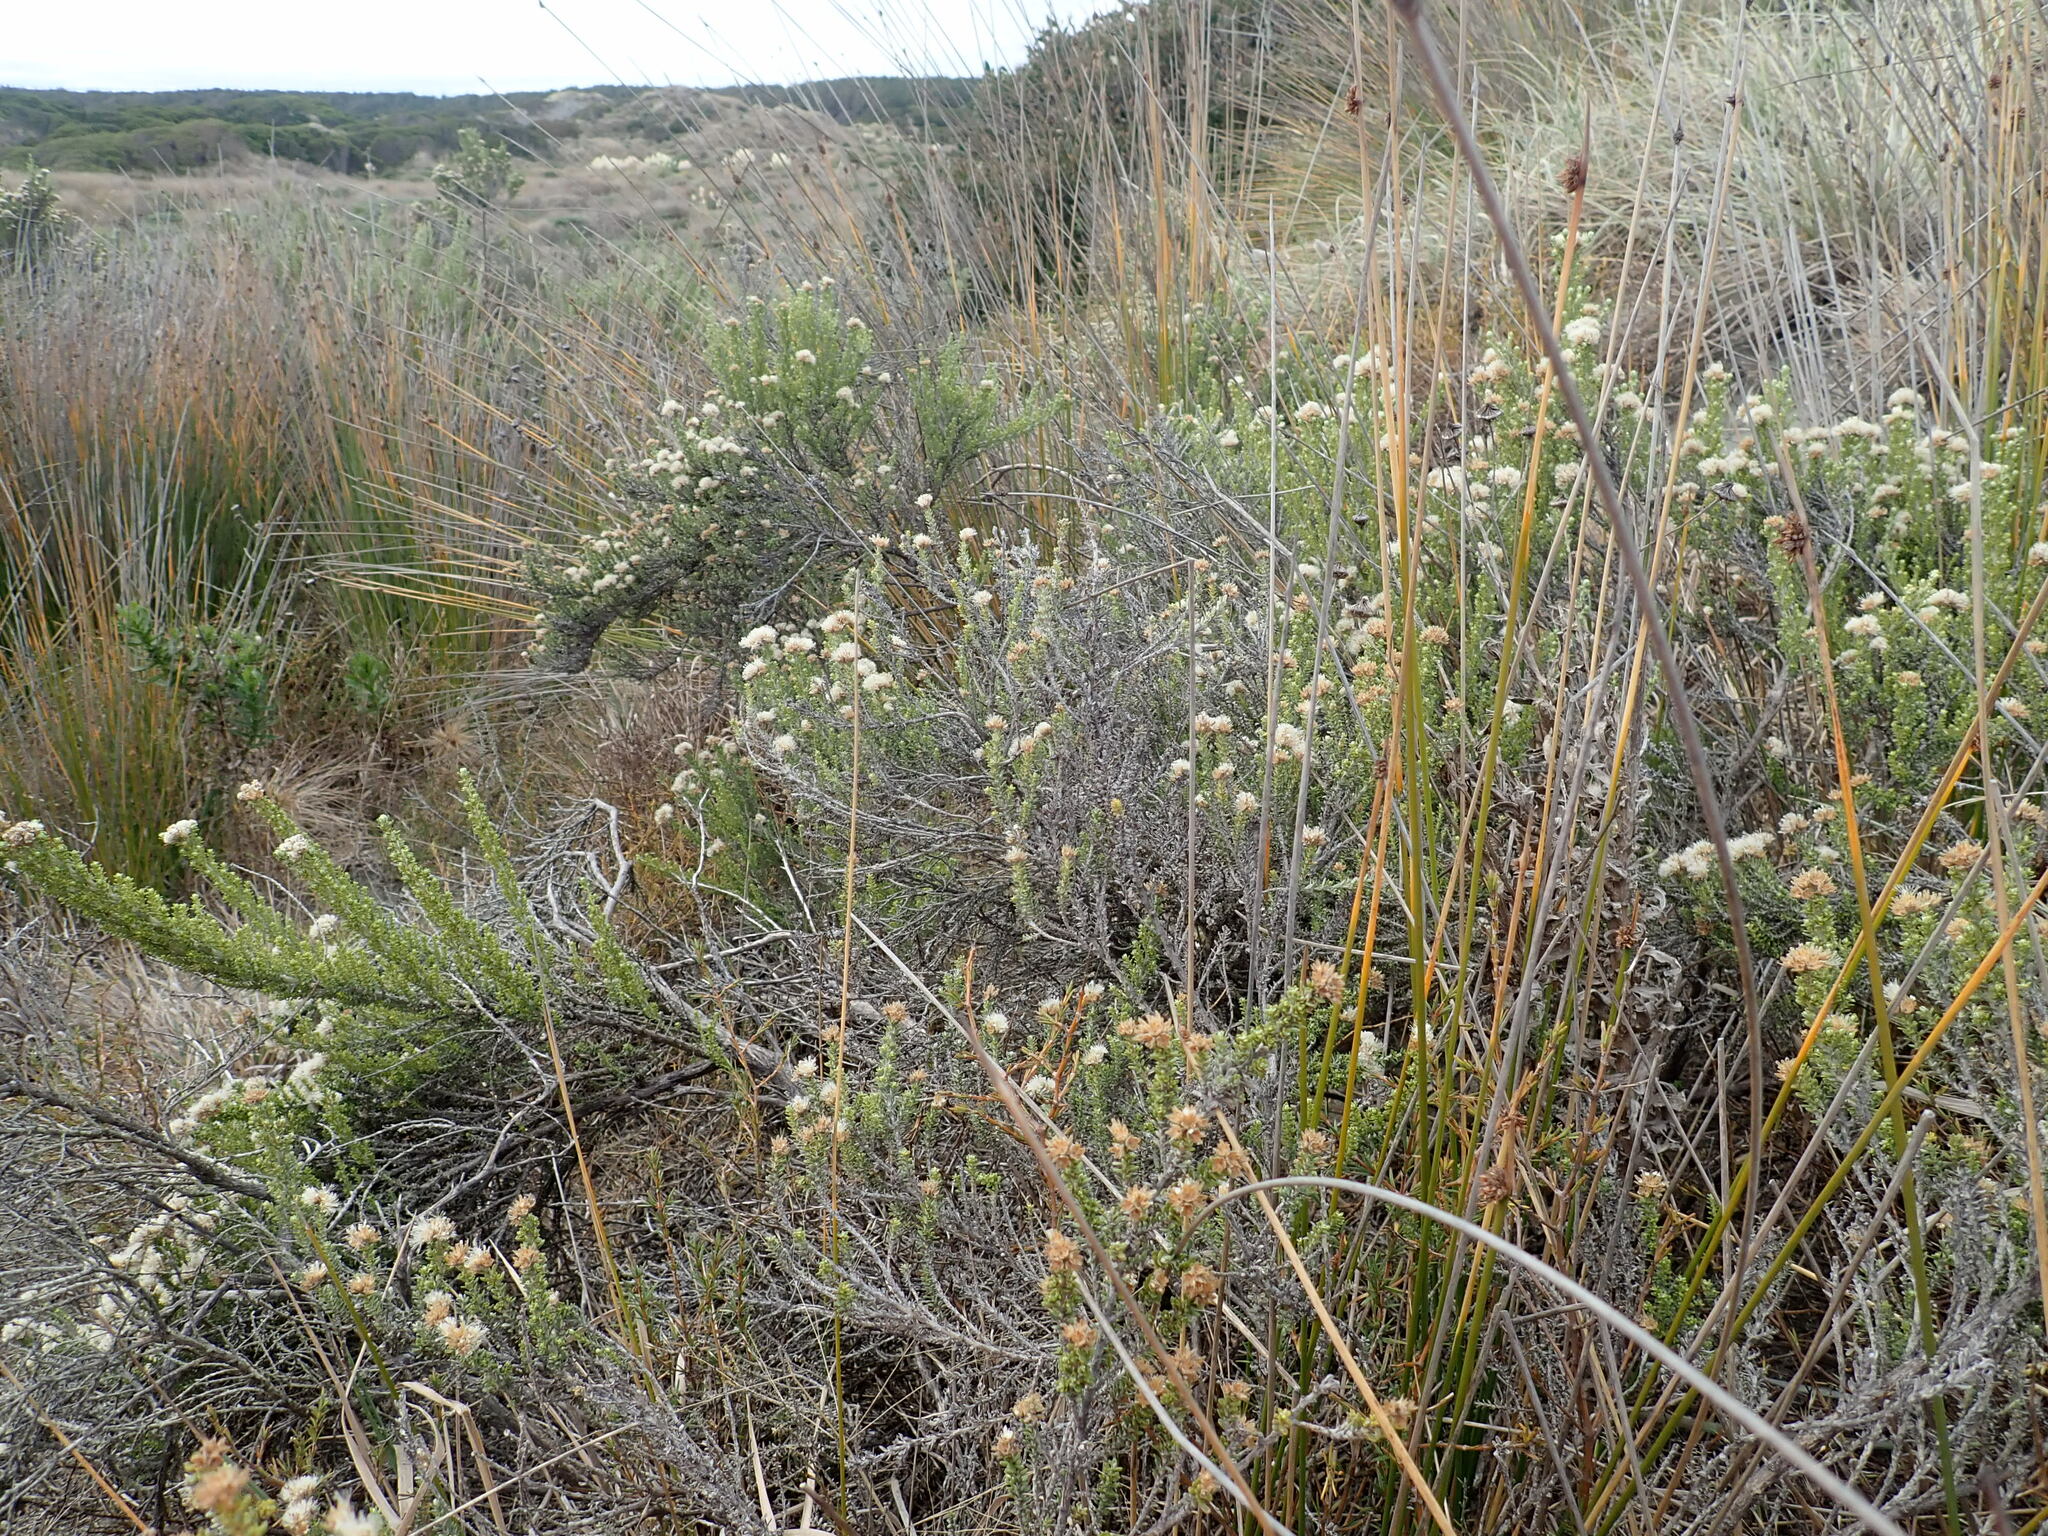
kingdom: Plantae
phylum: Tracheophyta
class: Magnoliopsida
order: Asterales
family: Asteraceae
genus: Ozothamnus
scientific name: Ozothamnus leptophyllus
